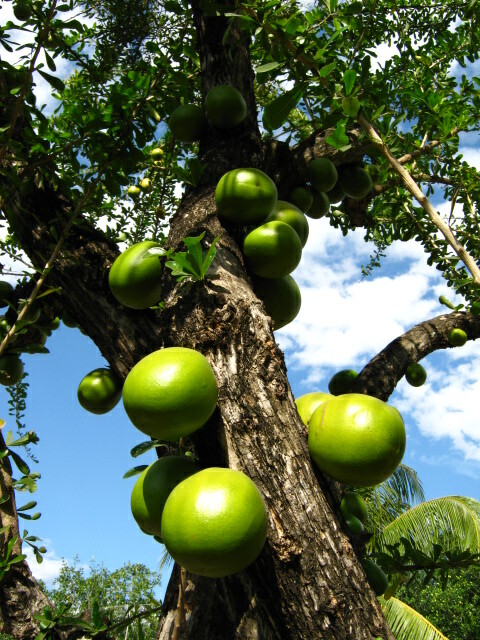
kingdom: Plantae
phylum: Tracheophyta
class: Magnoliopsida
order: Lamiales
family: Bignoniaceae
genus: Crescentia
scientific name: Crescentia cujete
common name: Calabash
